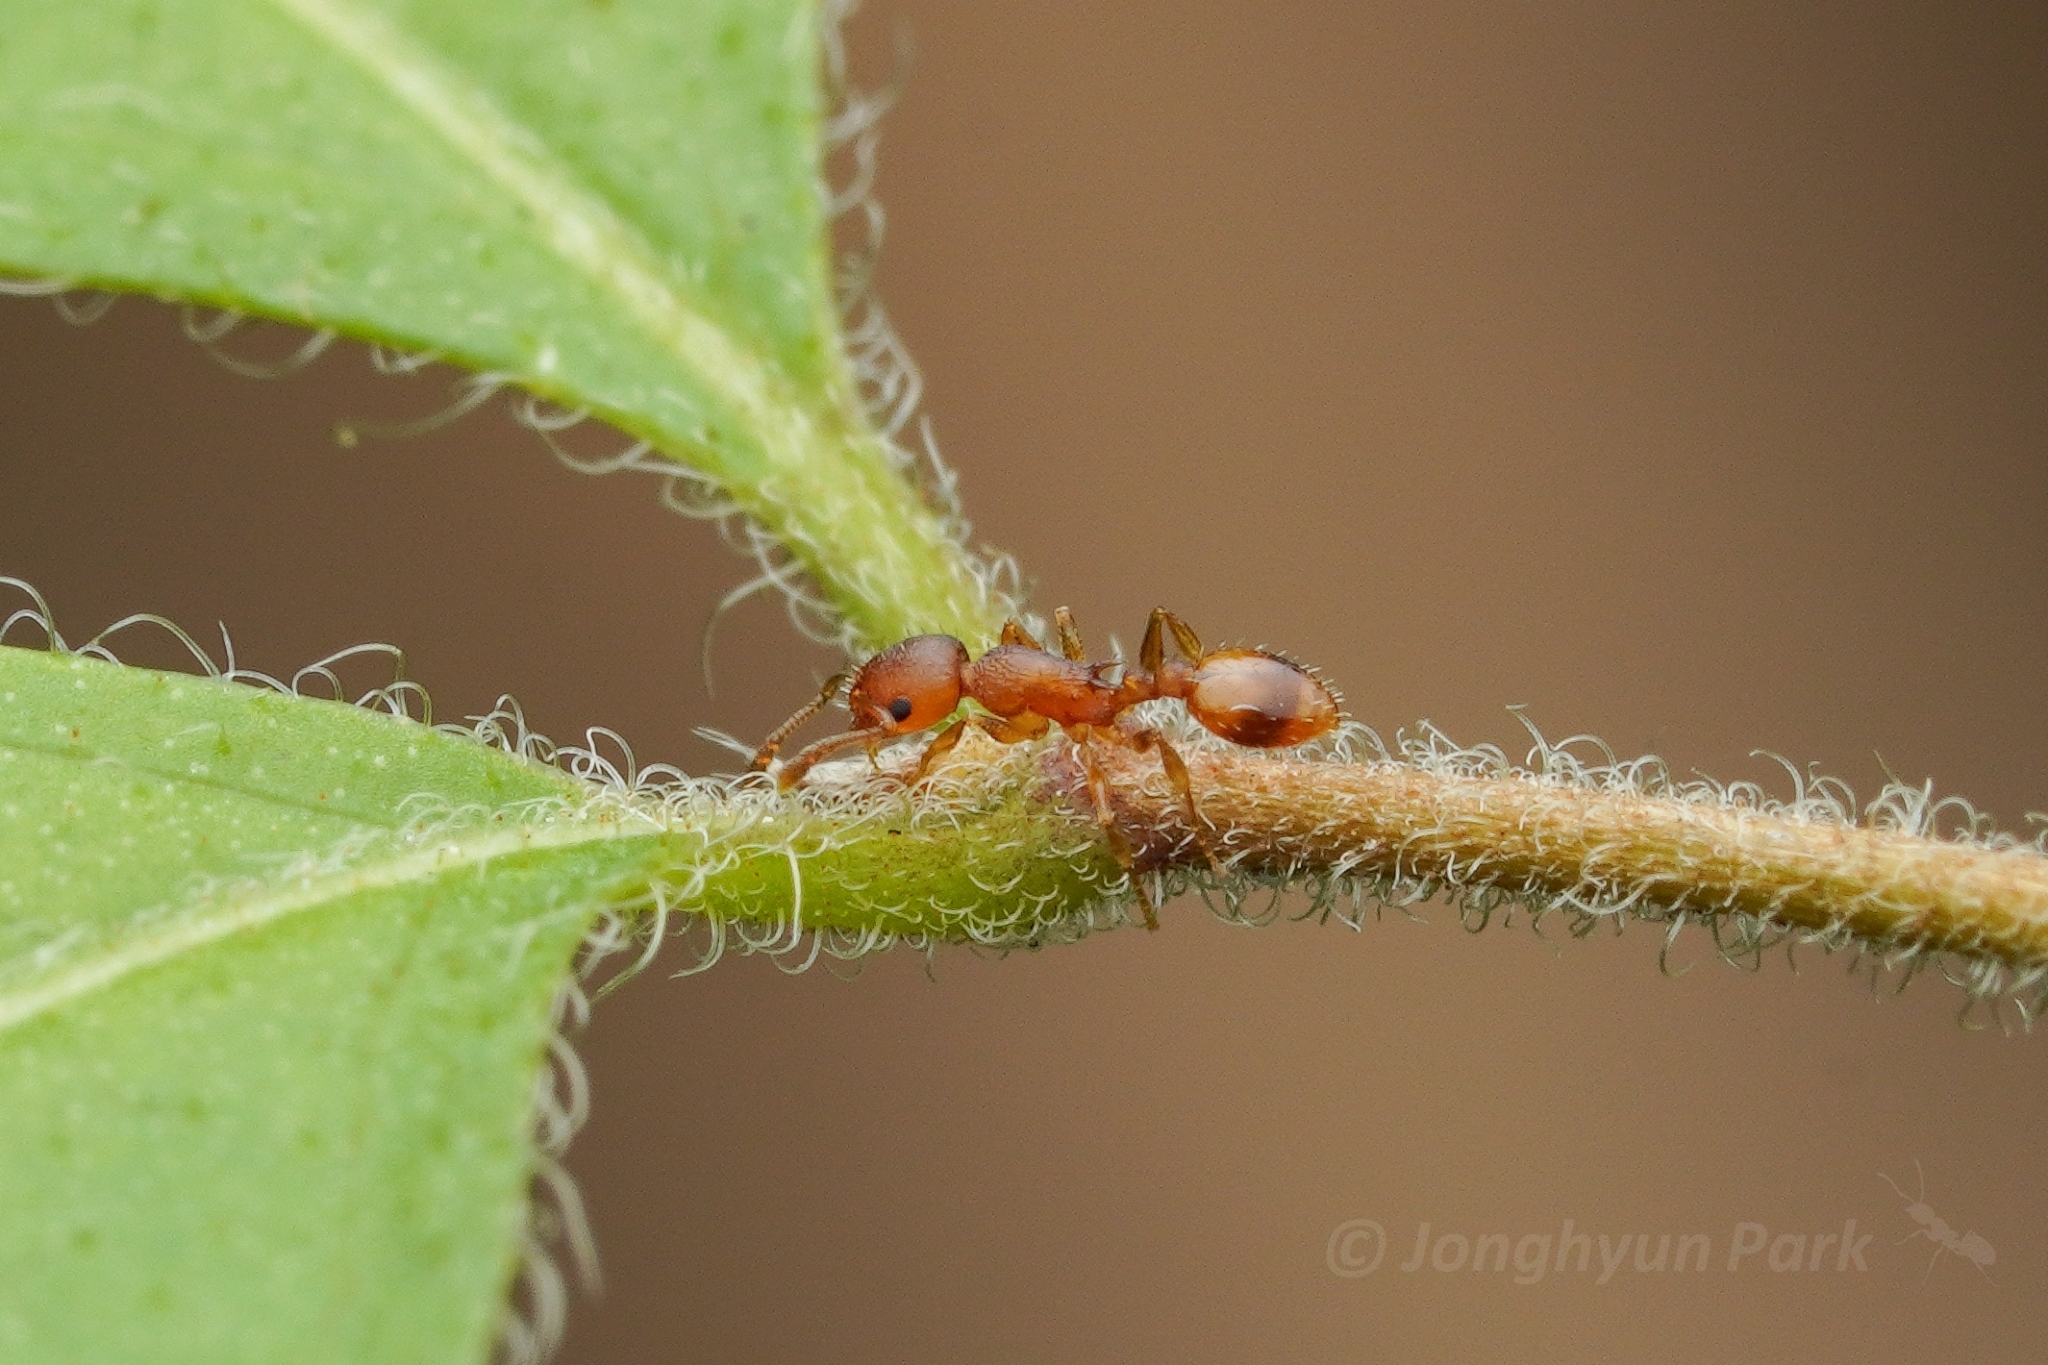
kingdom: Animalia
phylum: Arthropoda
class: Insecta
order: Hymenoptera
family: Formicidae
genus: Temnothorax
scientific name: Temnothorax curvispinosus
